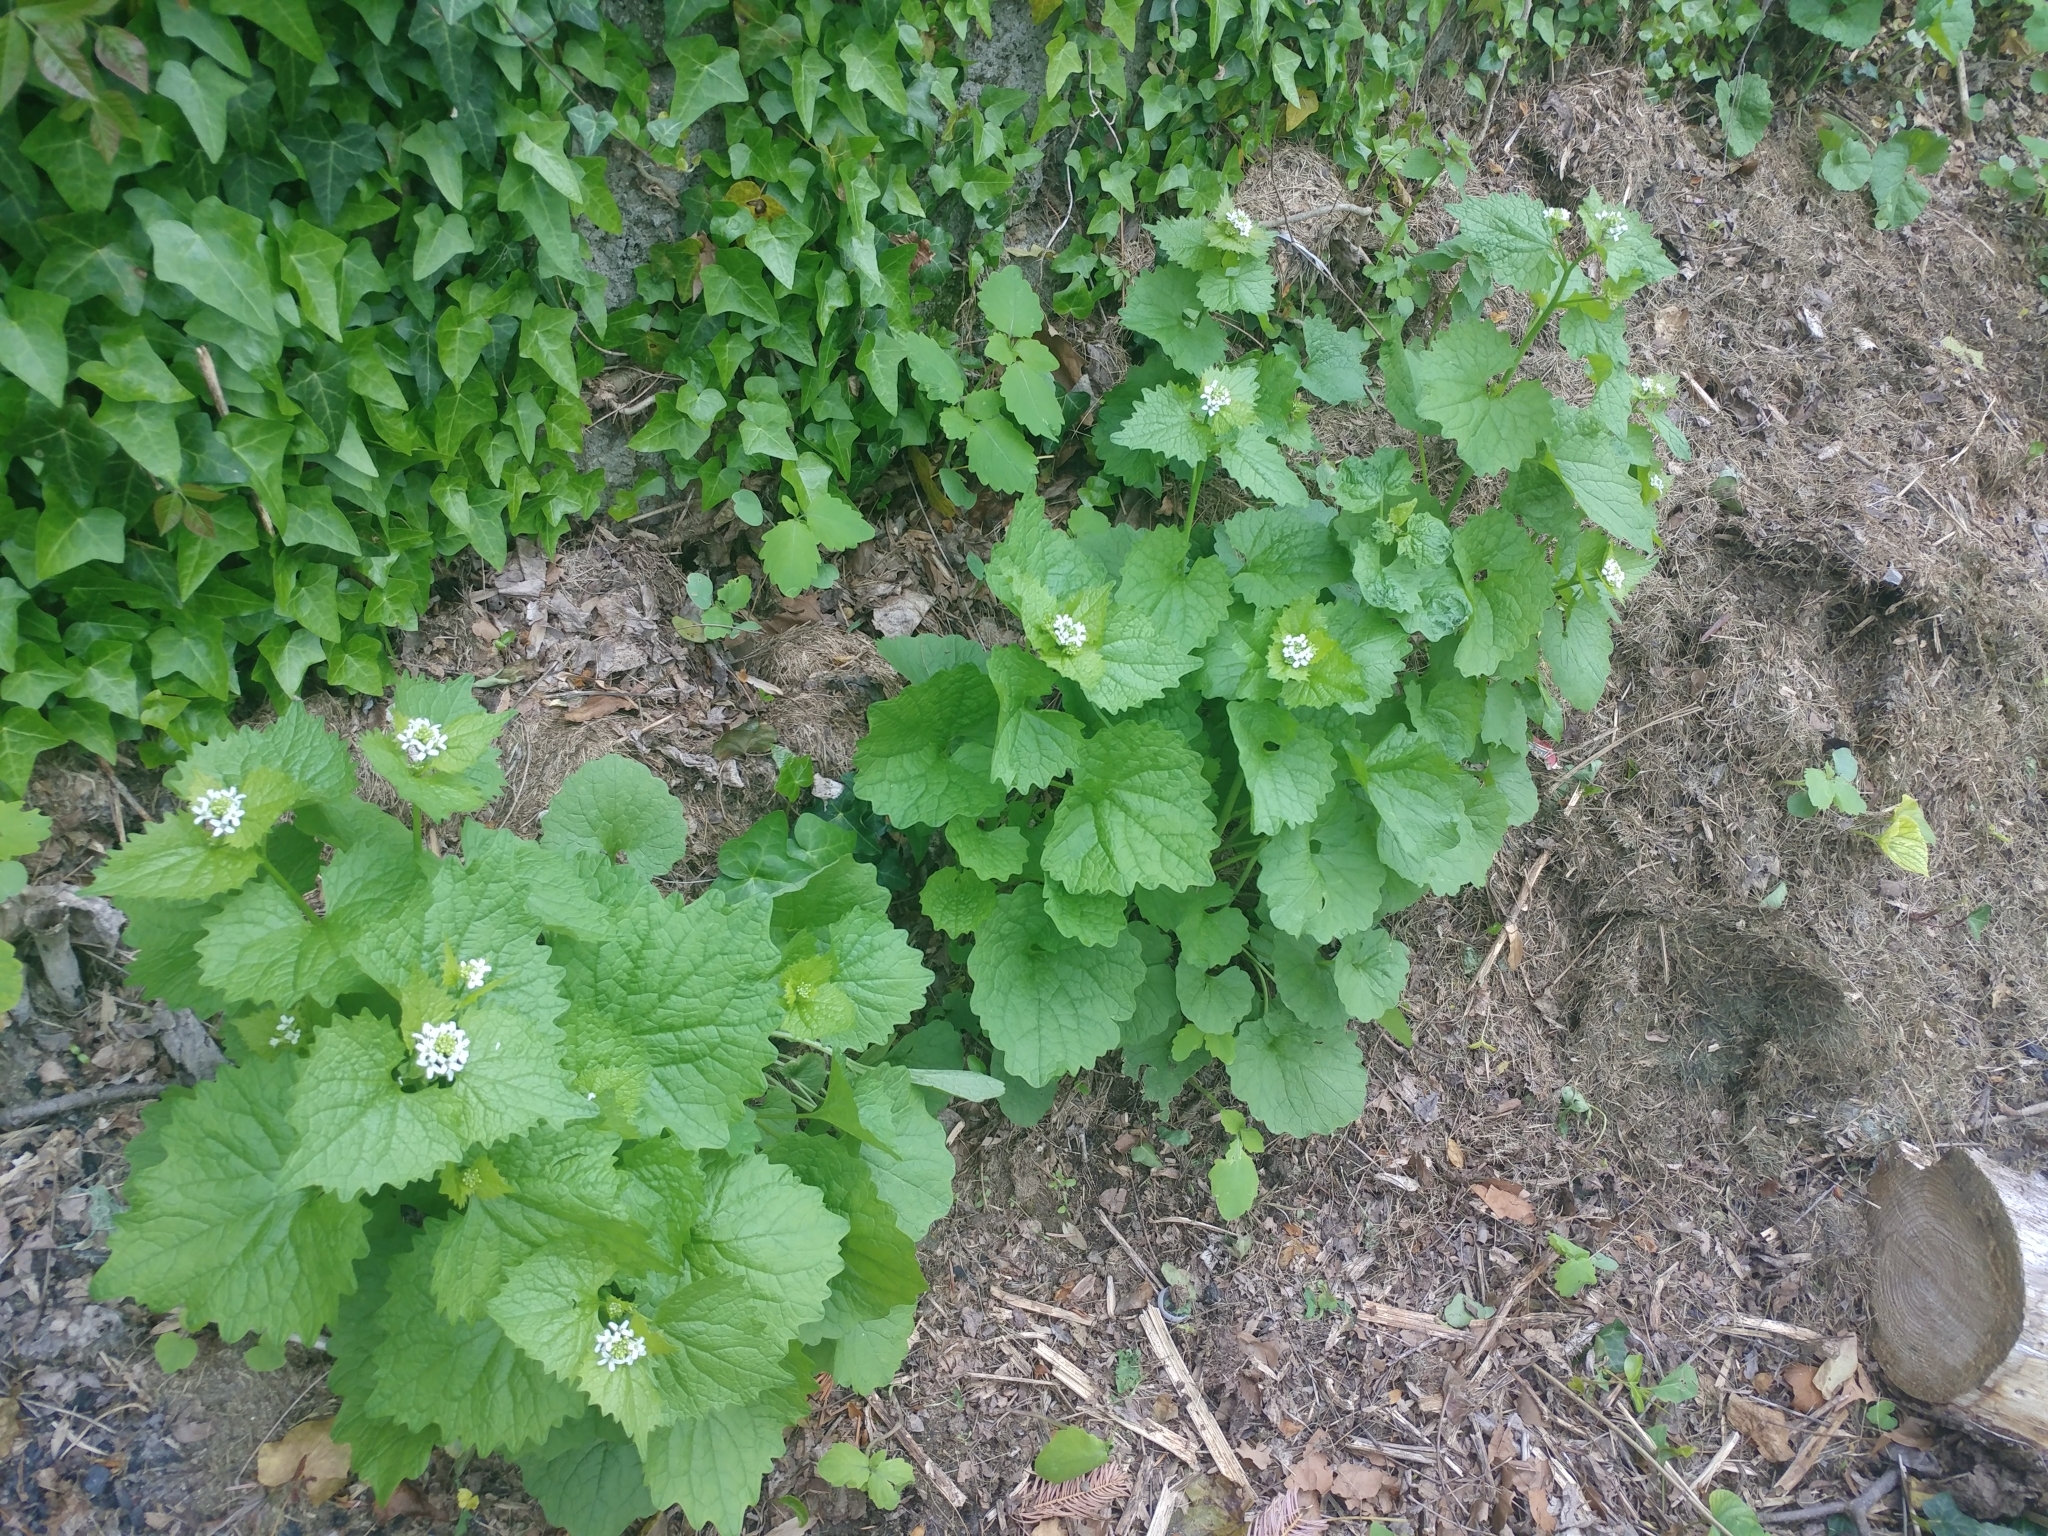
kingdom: Plantae
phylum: Tracheophyta
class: Magnoliopsida
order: Brassicales
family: Brassicaceae
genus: Alliaria
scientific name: Alliaria petiolata
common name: Garlic mustard
